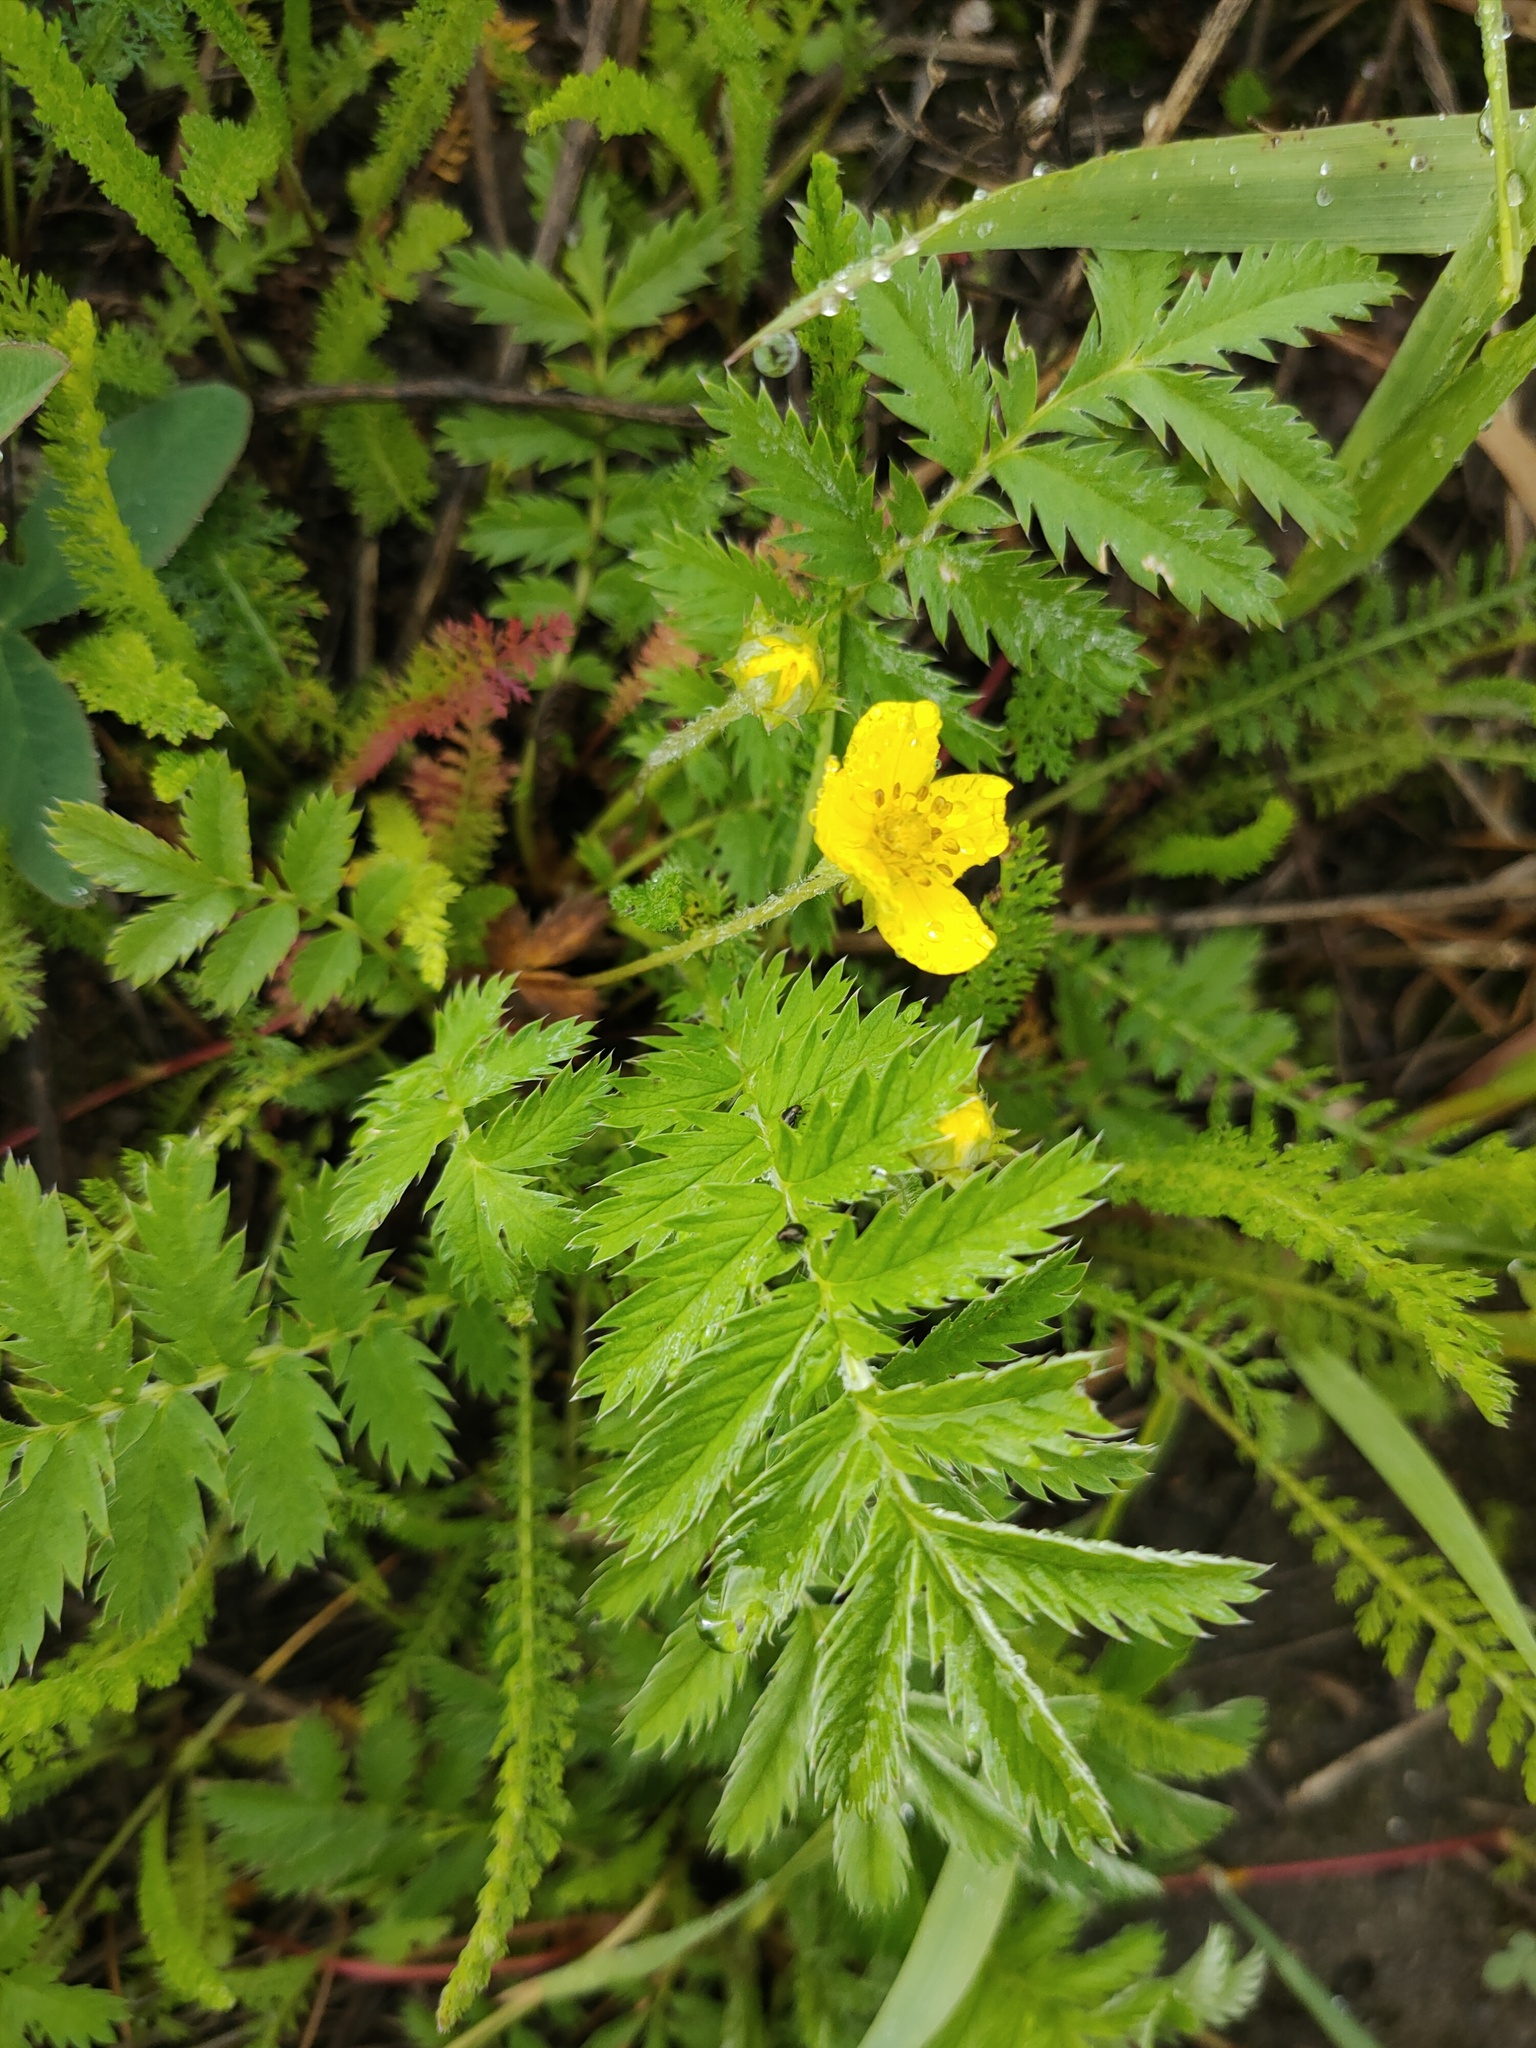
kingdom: Plantae
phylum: Tracheophyta
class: Magnoliopsida
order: Rosales
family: Rosaceae
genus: Argentina
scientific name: Argentina anserina
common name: Common silverweed
